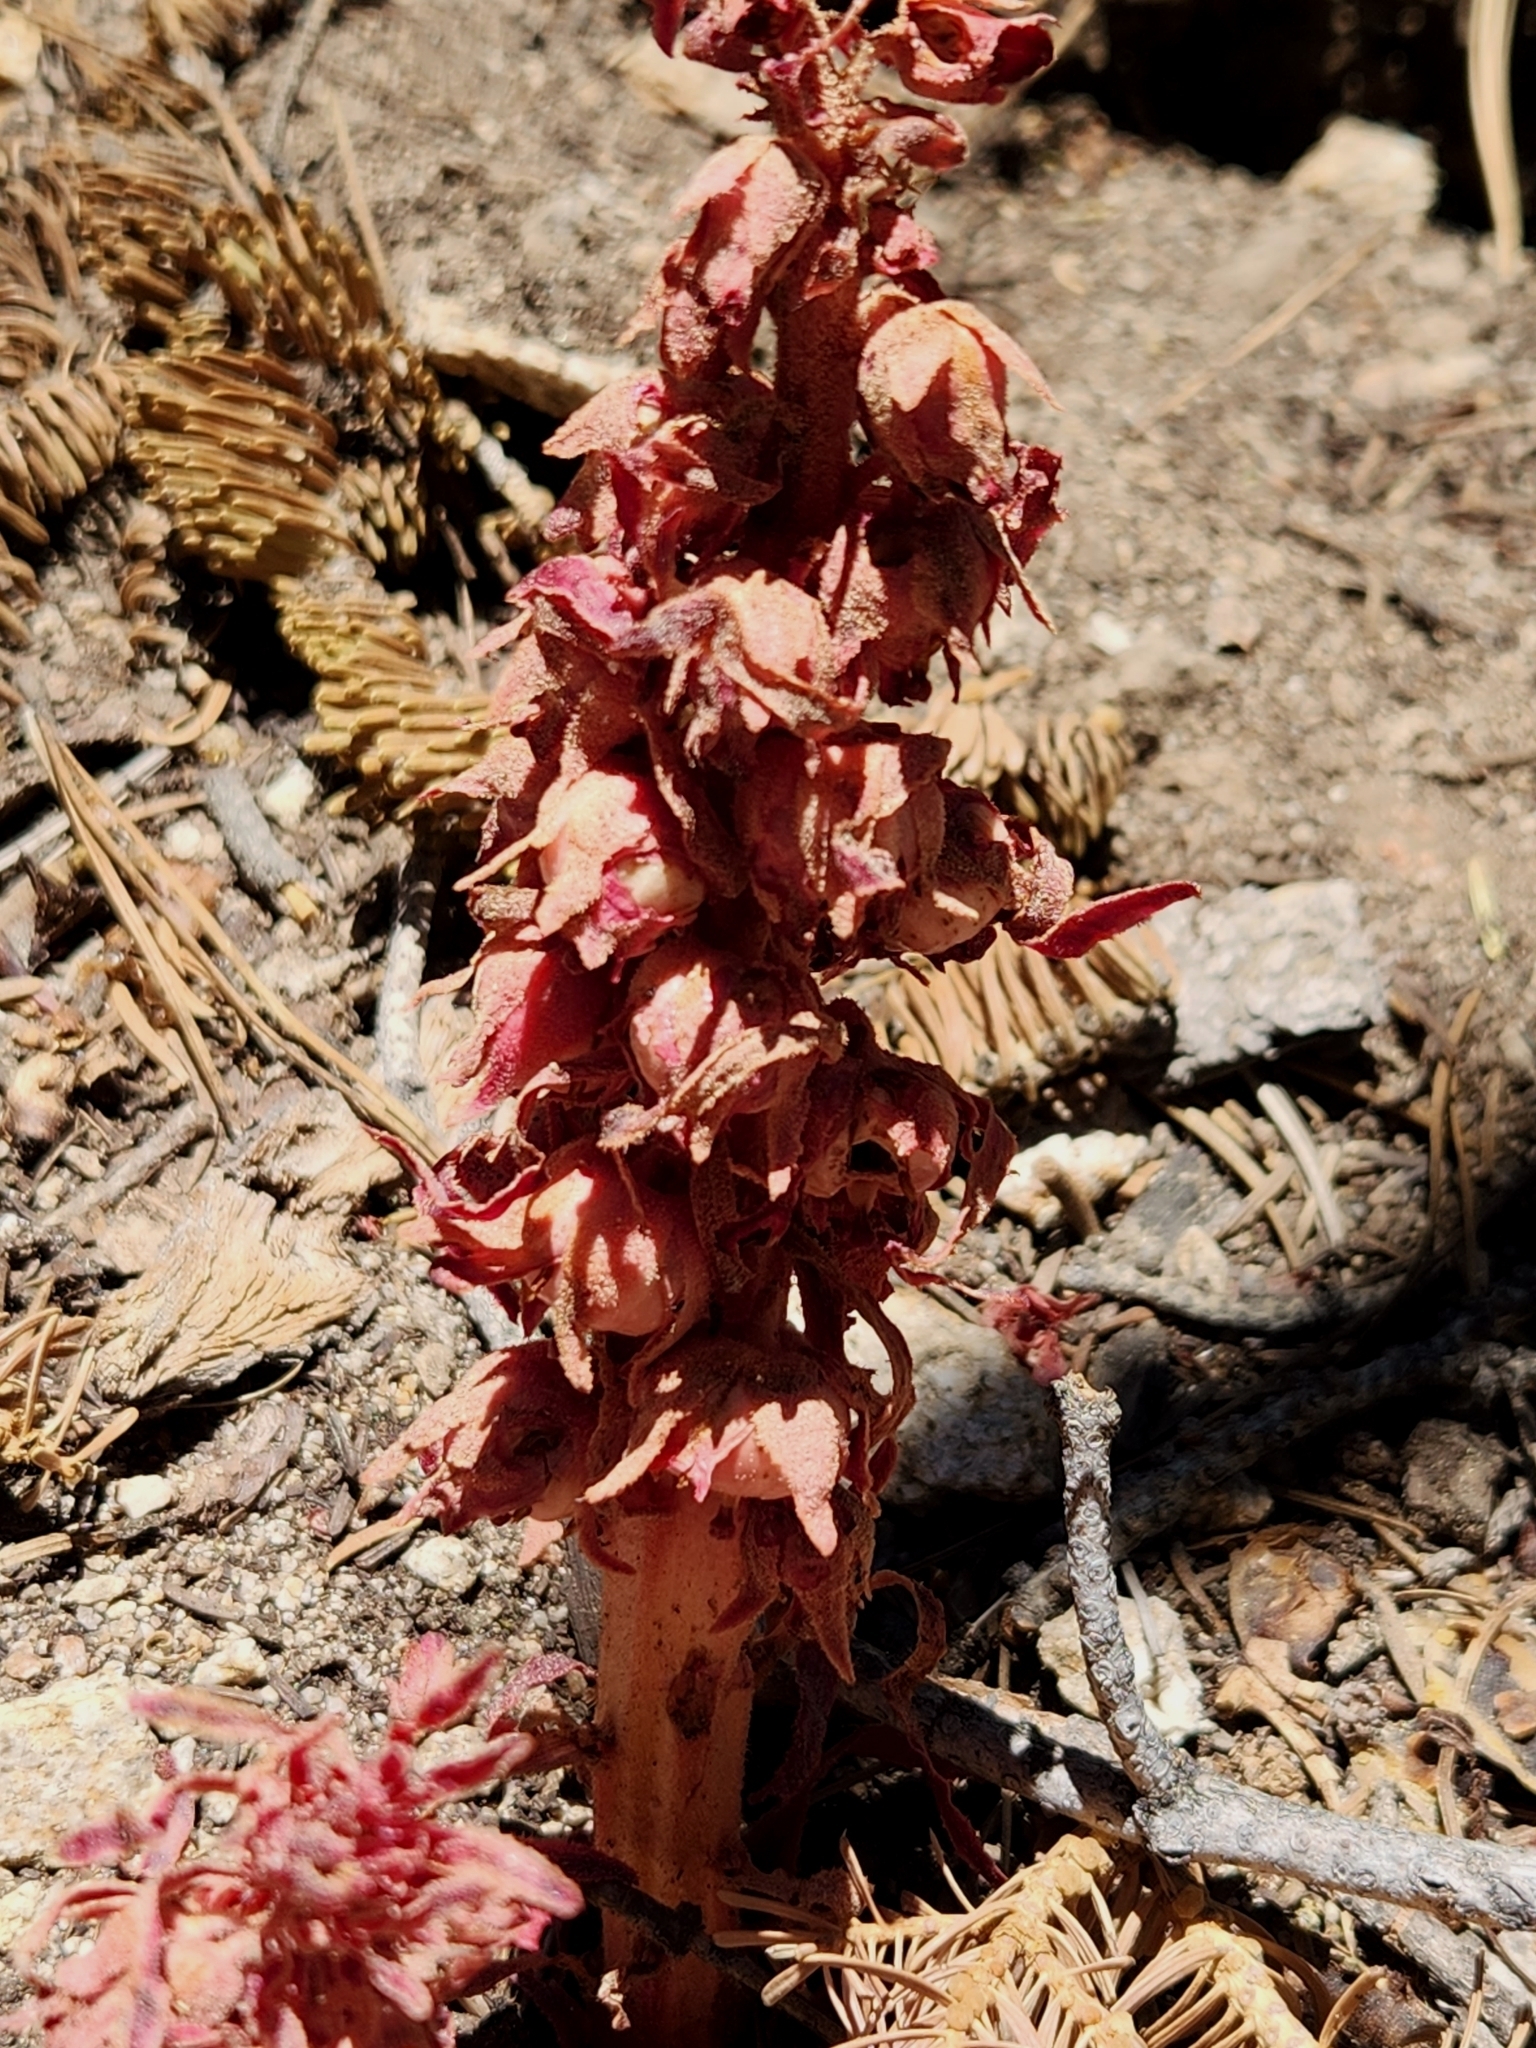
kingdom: Plantae
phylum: Tracheophyta
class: Magnoliopsida
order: Ericales
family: Ericaceae
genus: Sarcodes
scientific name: Sarcodes sanguinea
